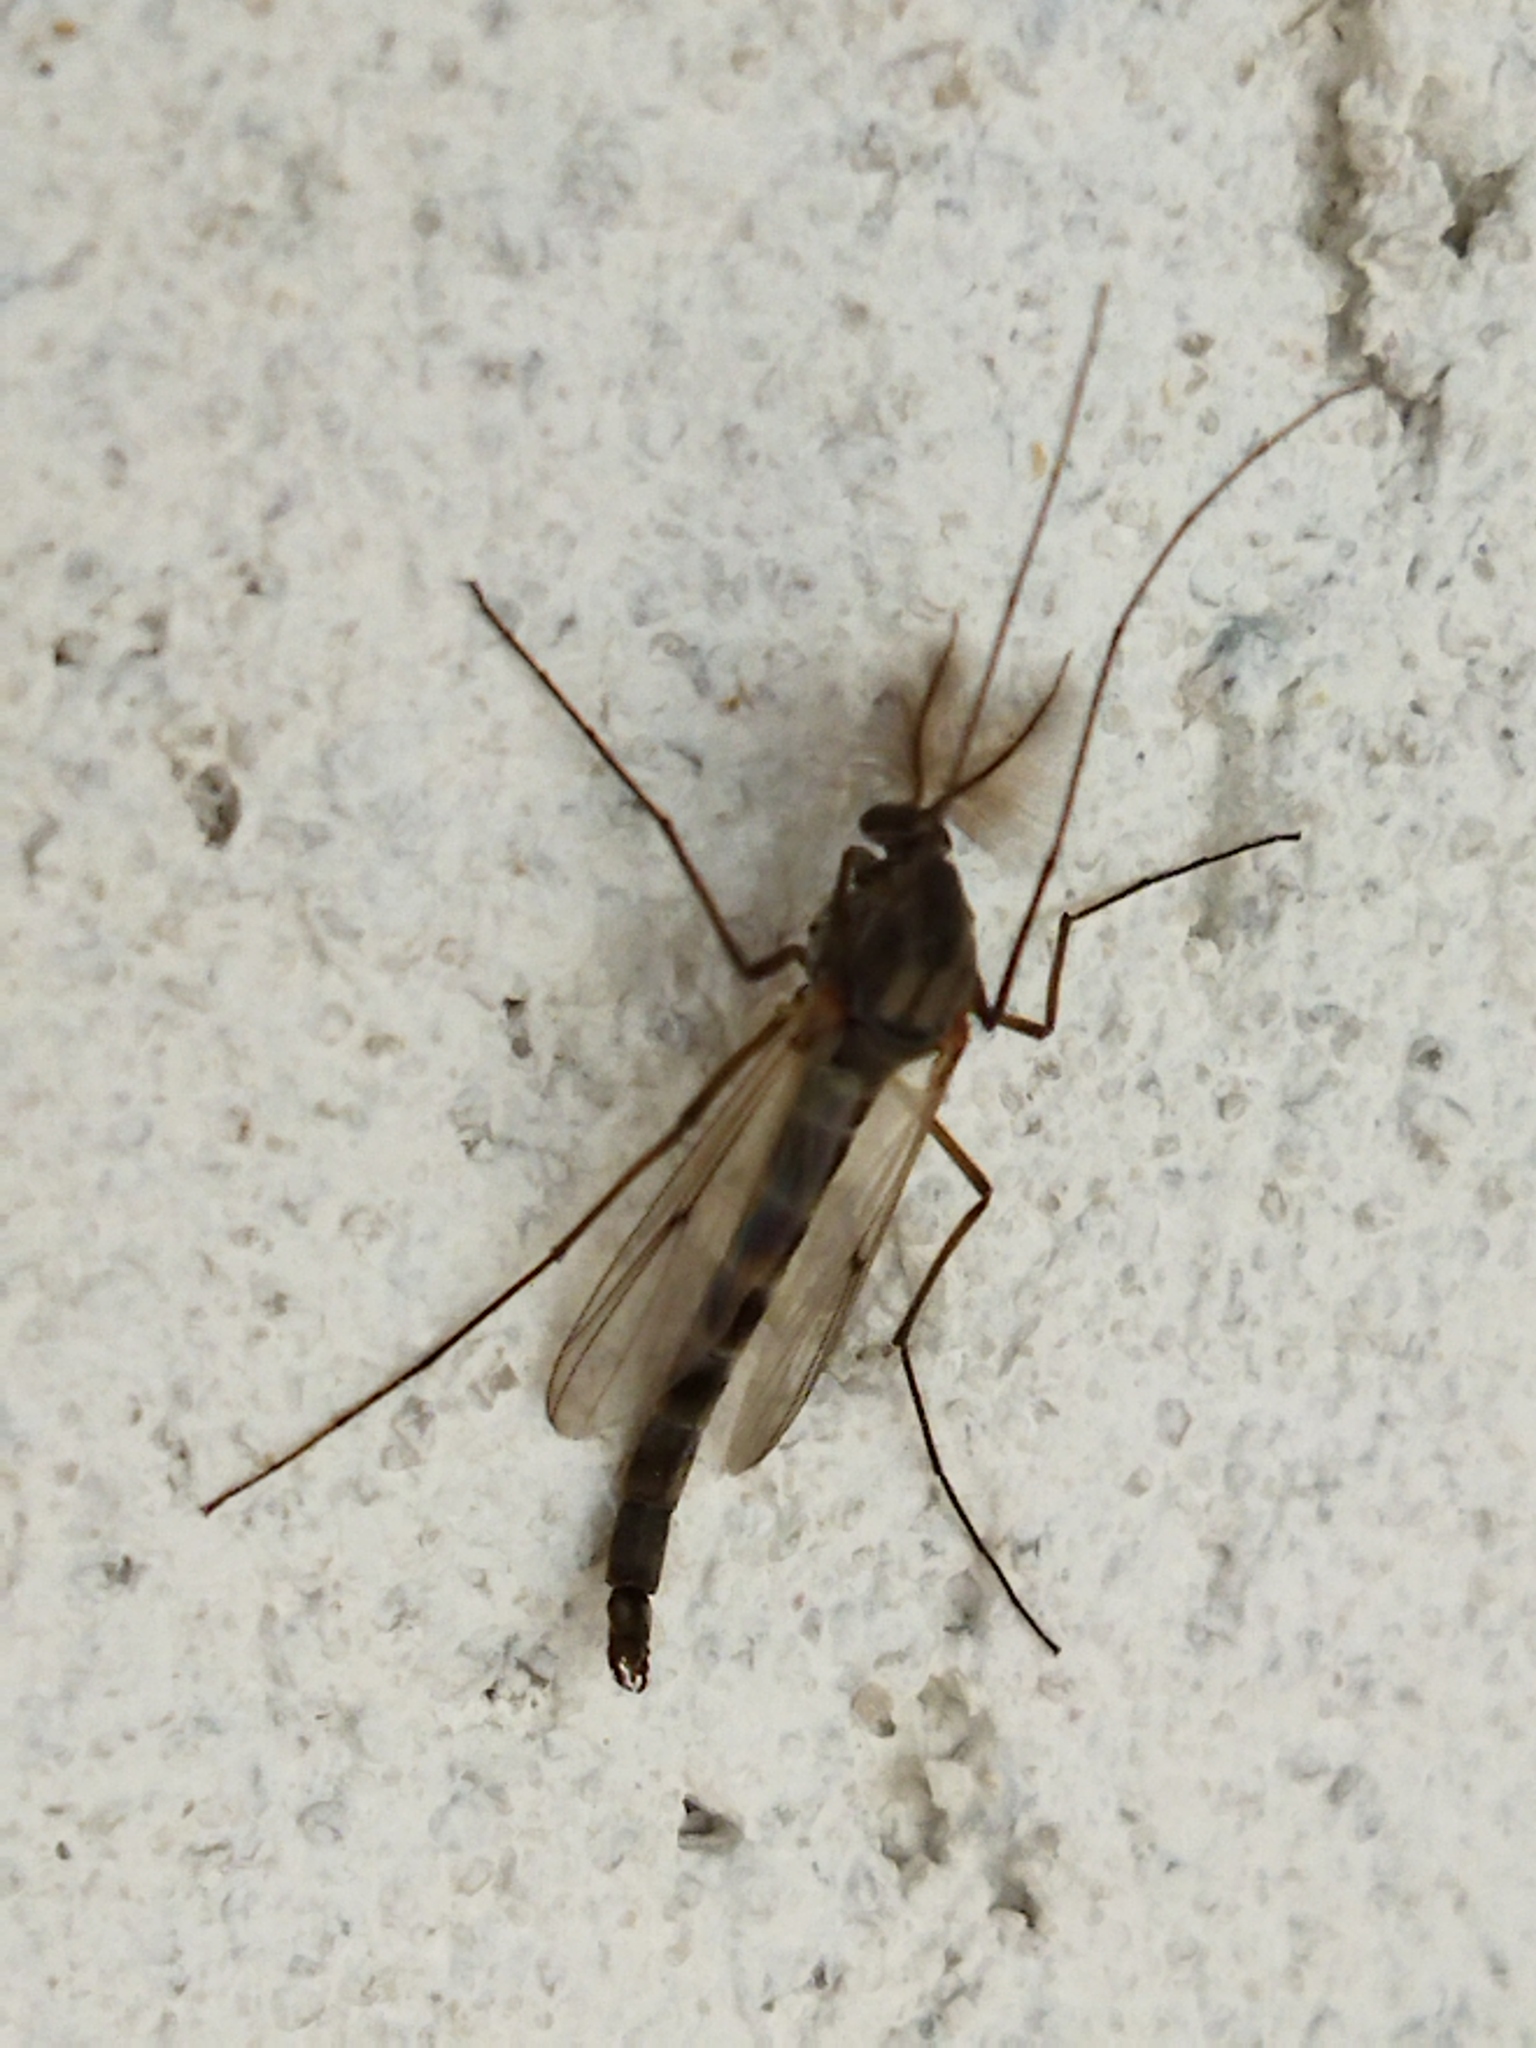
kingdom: Animalia
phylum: Arthropoda
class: Insecta
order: Diptera
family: Chironomidae
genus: Glyptotendipes
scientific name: Glyptotendipes barbipes
